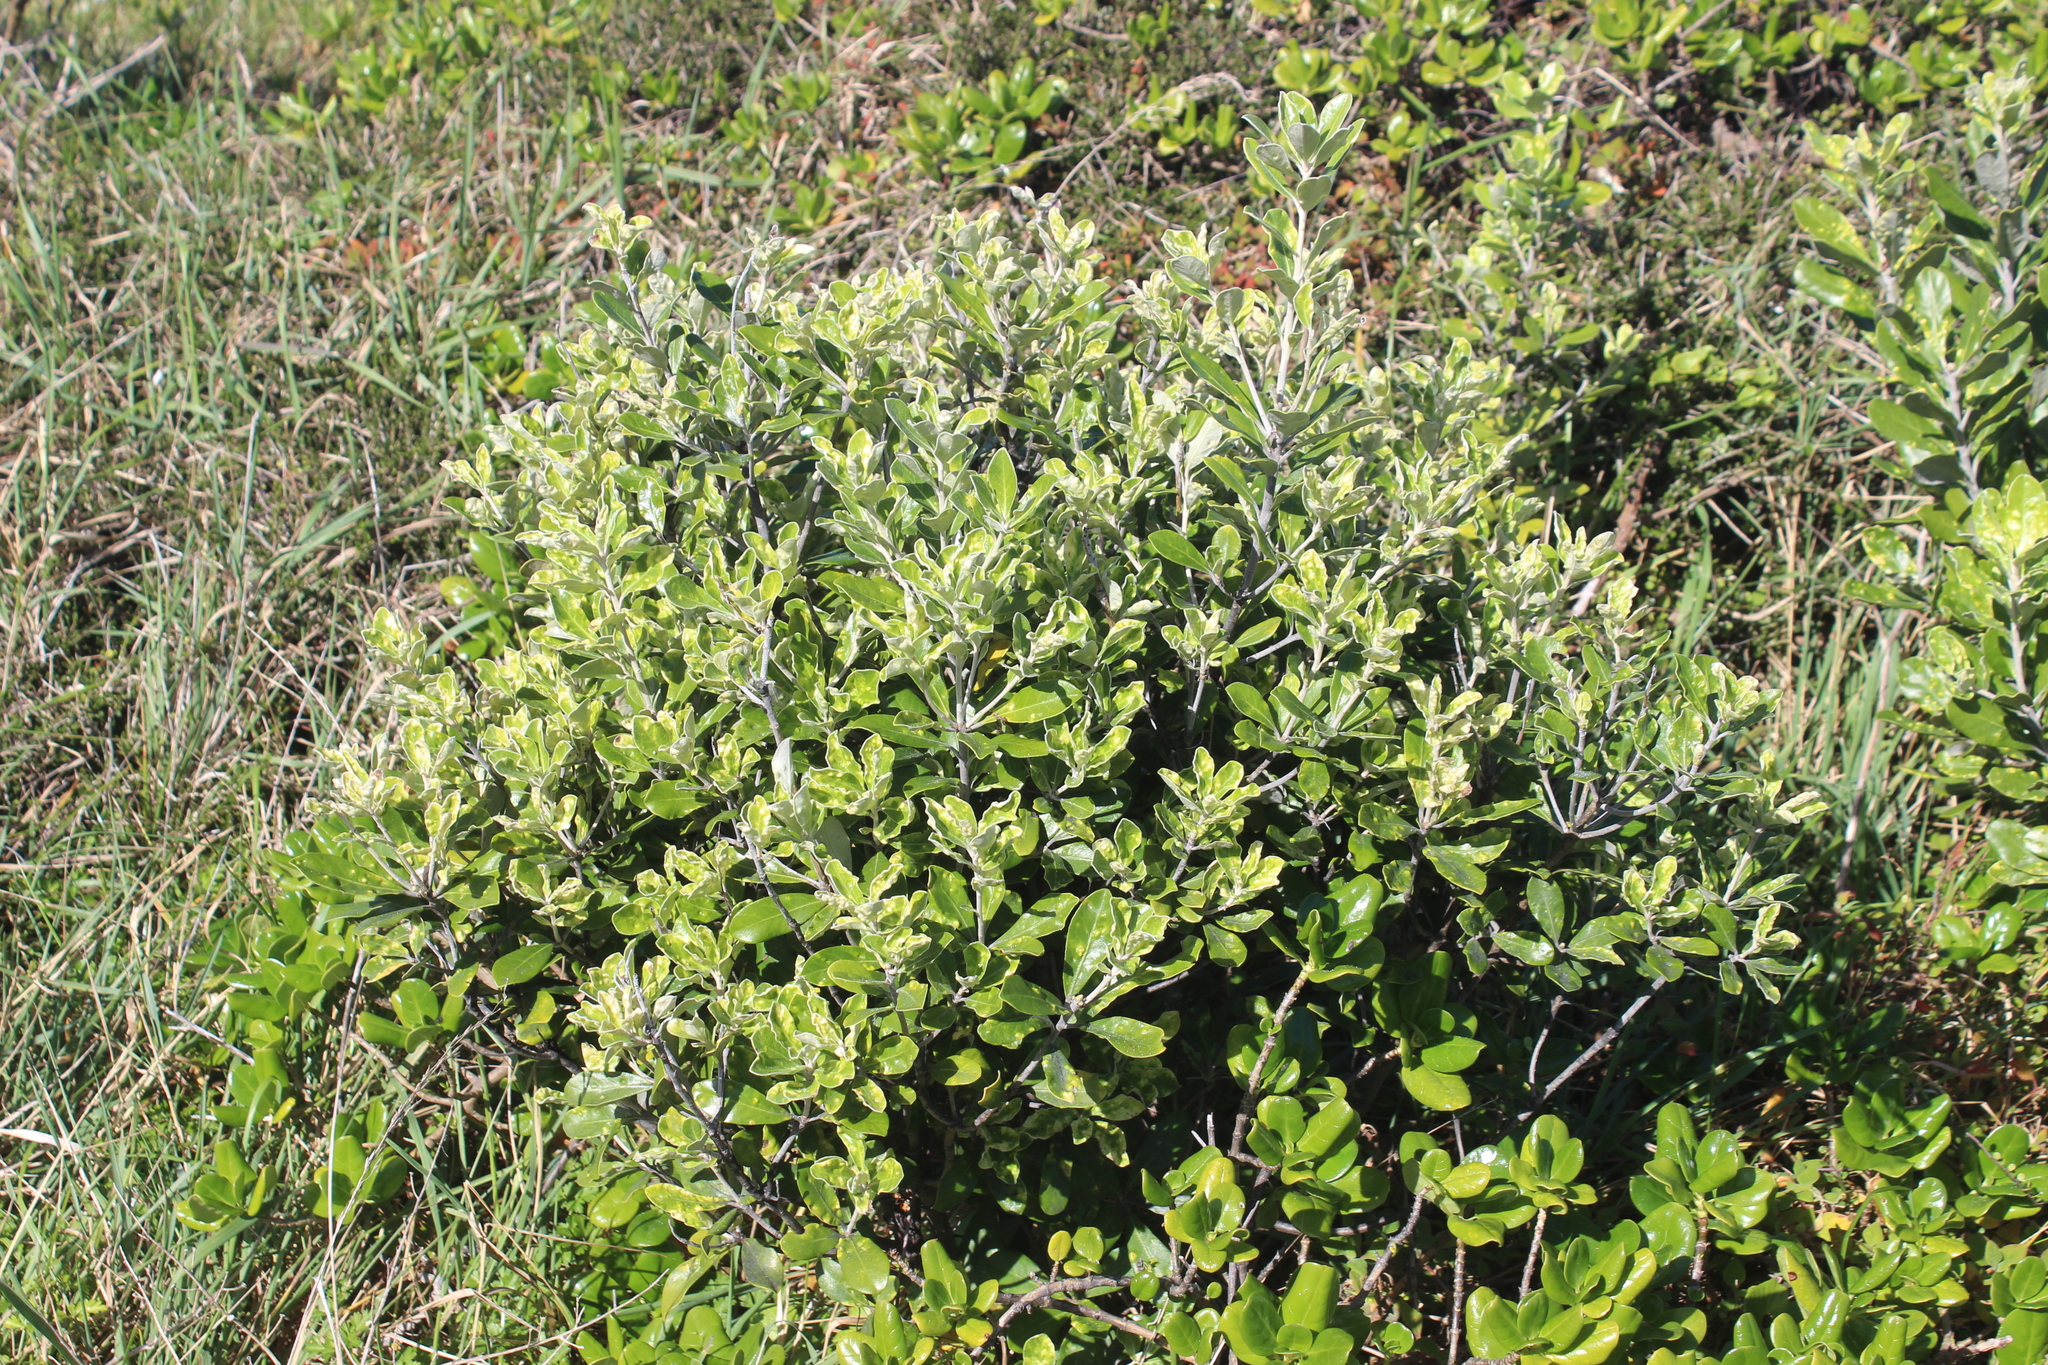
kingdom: Plantae
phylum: Tracheophyta
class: Magnoliopsida
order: Apiales
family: Pittosporaceae
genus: Pittosporum
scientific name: Pittosporum crassifolium
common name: Karo
